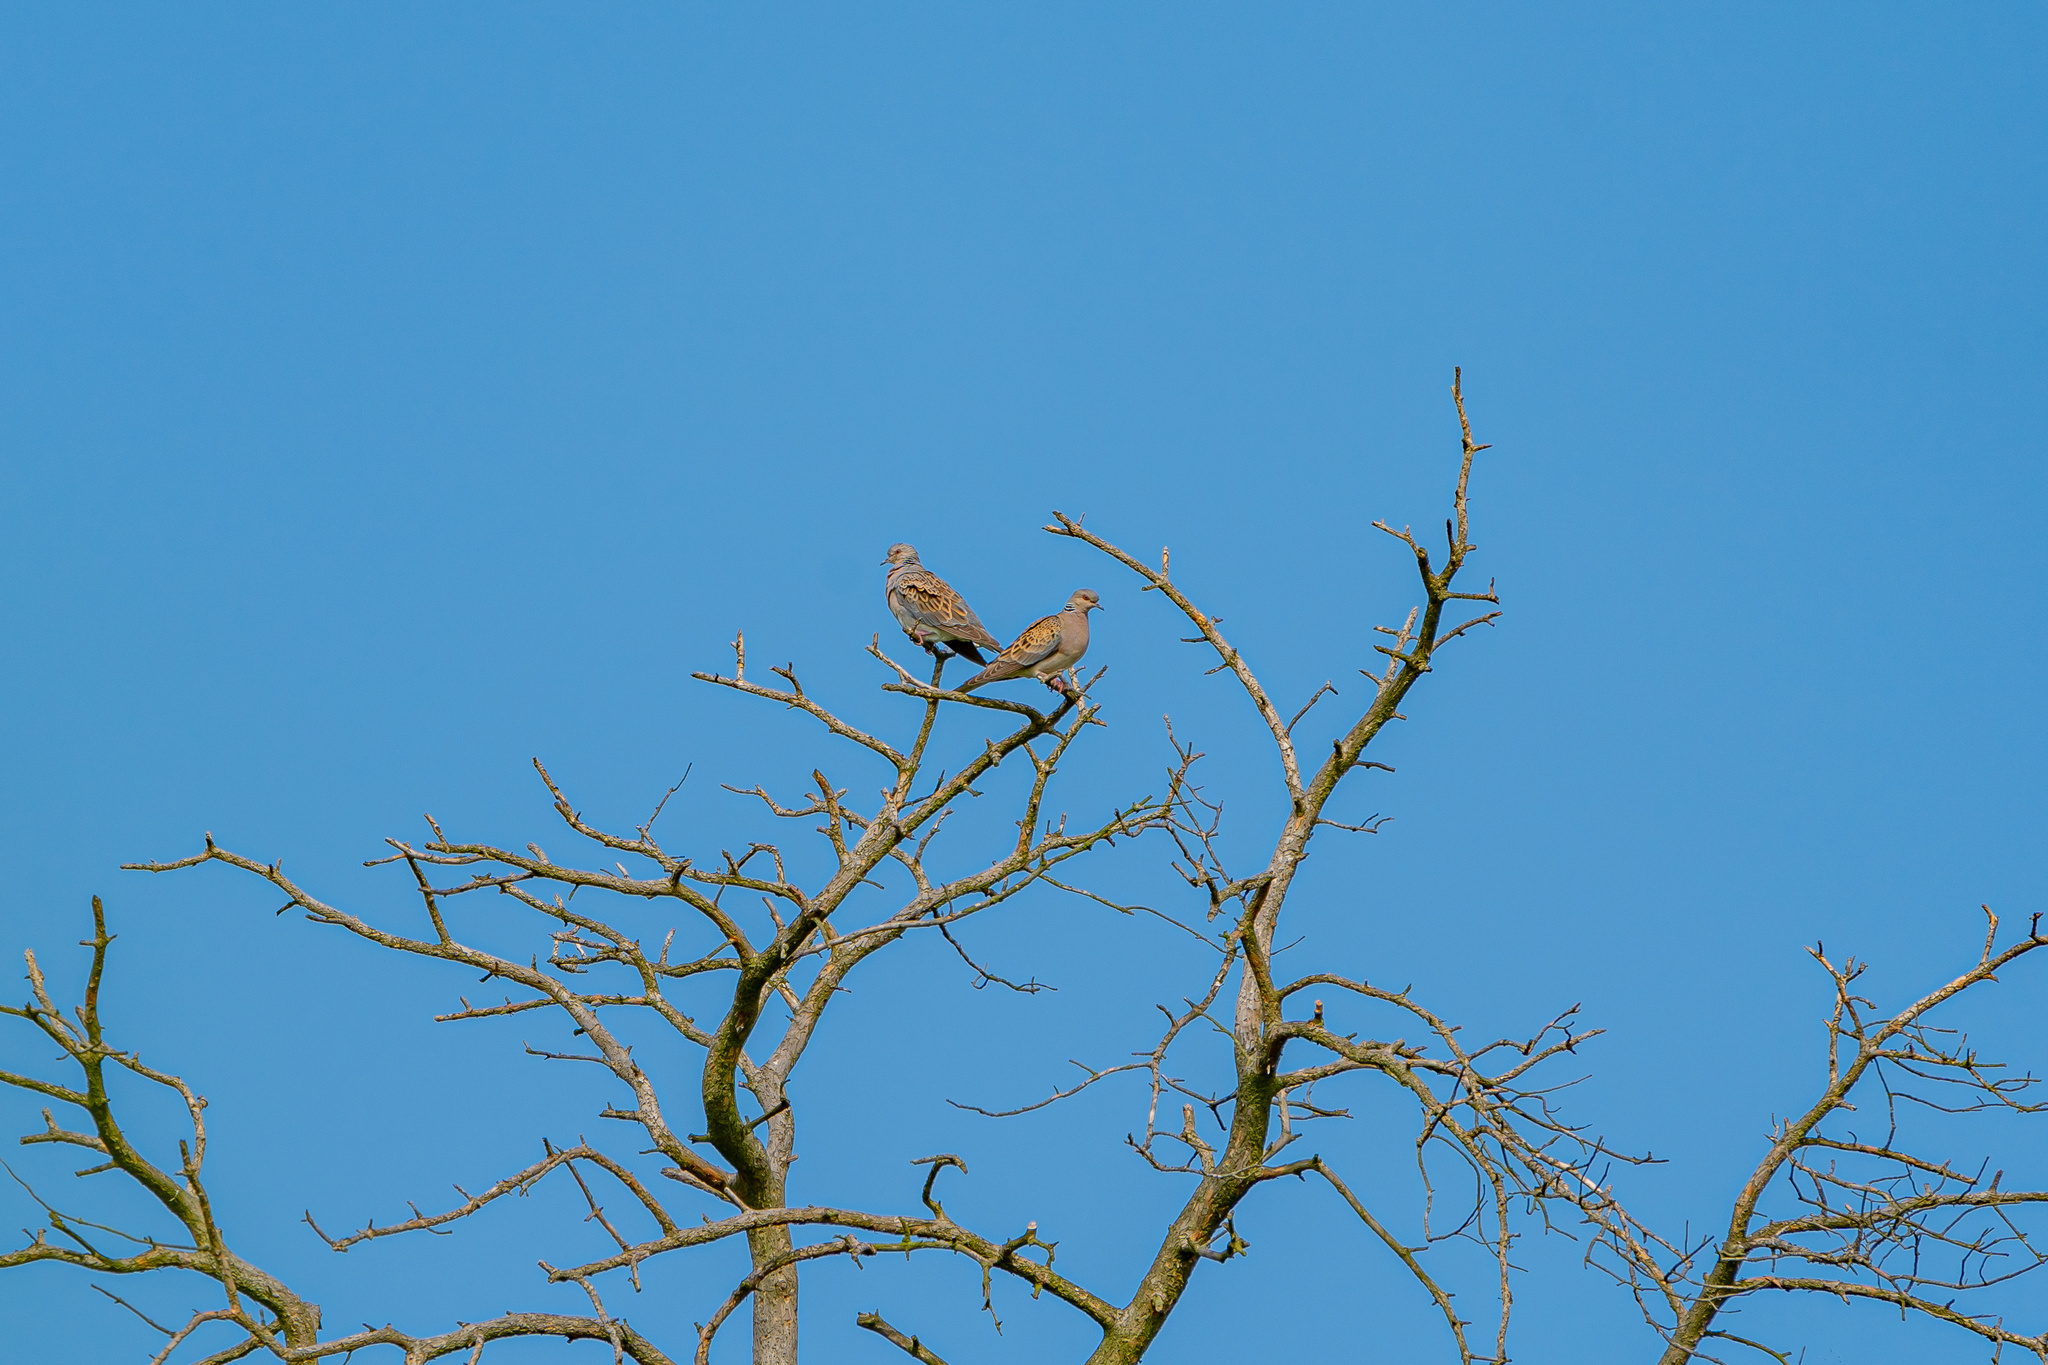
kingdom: Animalia
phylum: Chordata
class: Aves
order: Columbiformes
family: Columbidae
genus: Streptopelia
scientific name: Streptopelia turtur
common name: European turtle dove
